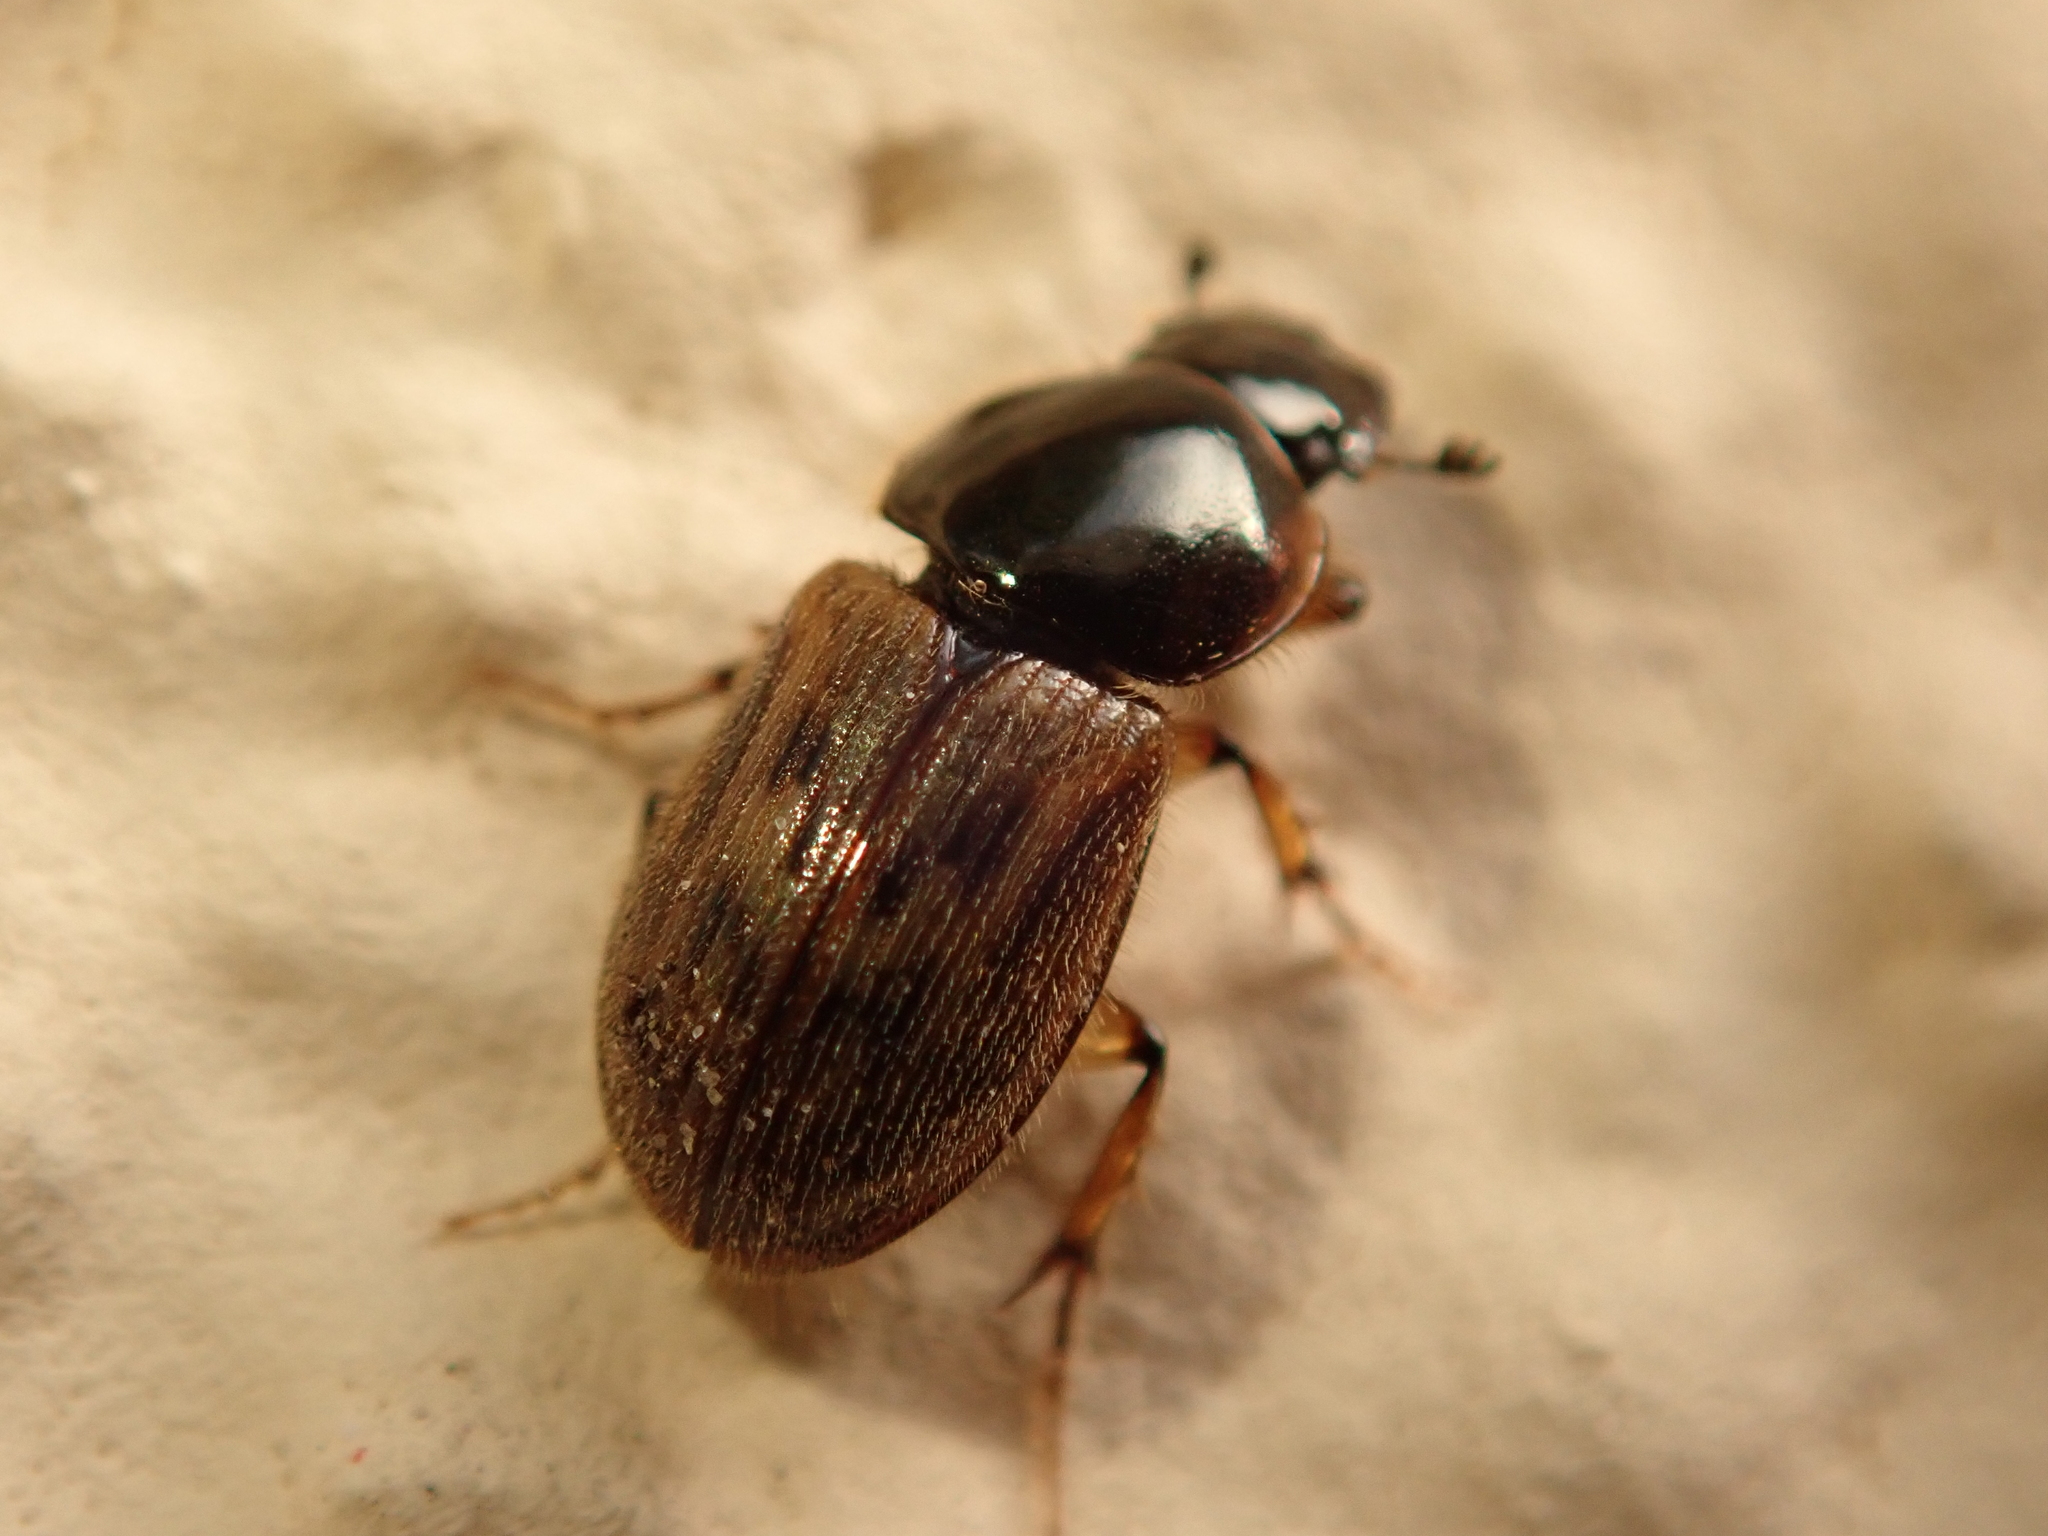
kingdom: Animalia
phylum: Arthropoda
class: Insecta
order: Coleoptera
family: Scarabaeidae
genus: Nimbus
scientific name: Nimbus contaminatus
